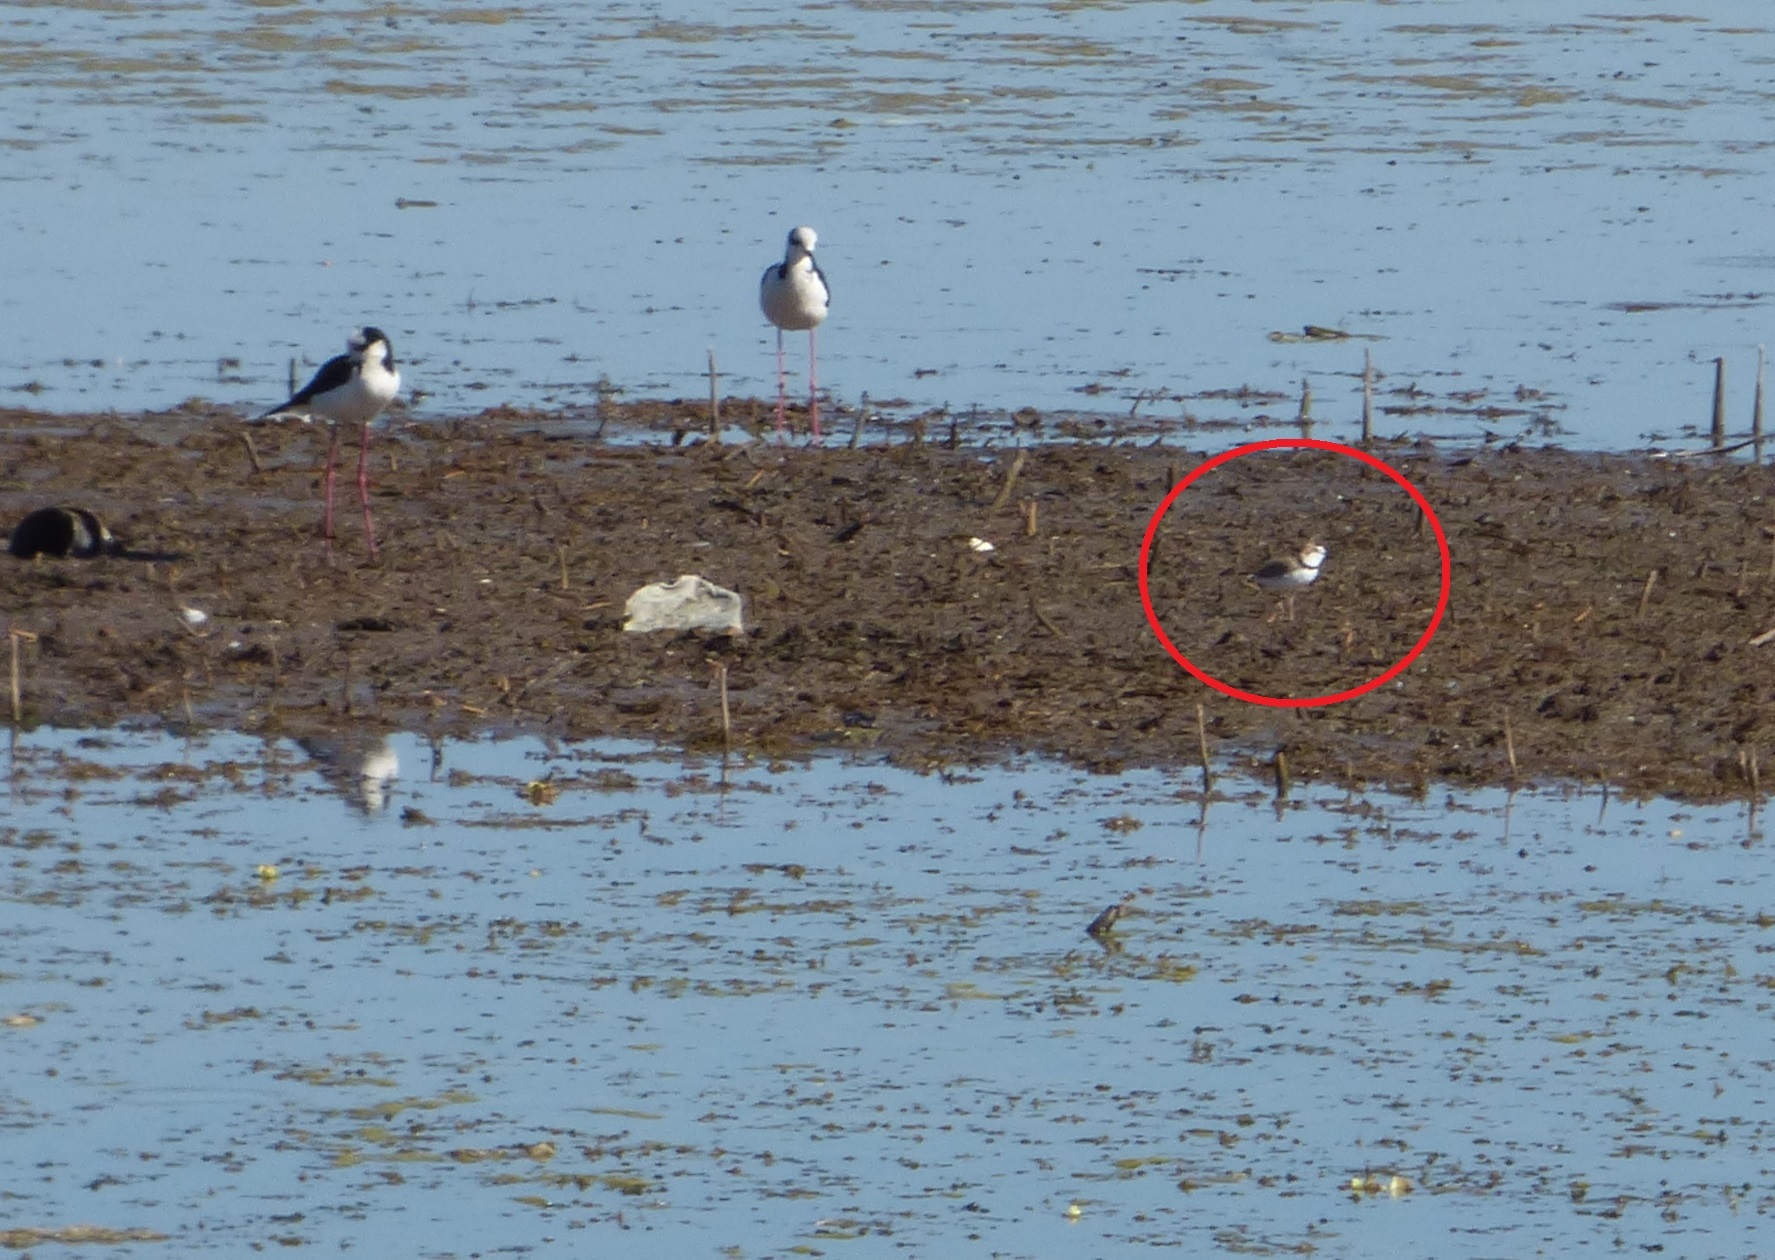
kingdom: Animalia
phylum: Chordata
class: Aves
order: Charadriiformes
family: Charadriidae
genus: Anarhynchus
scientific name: Anarhynchus
